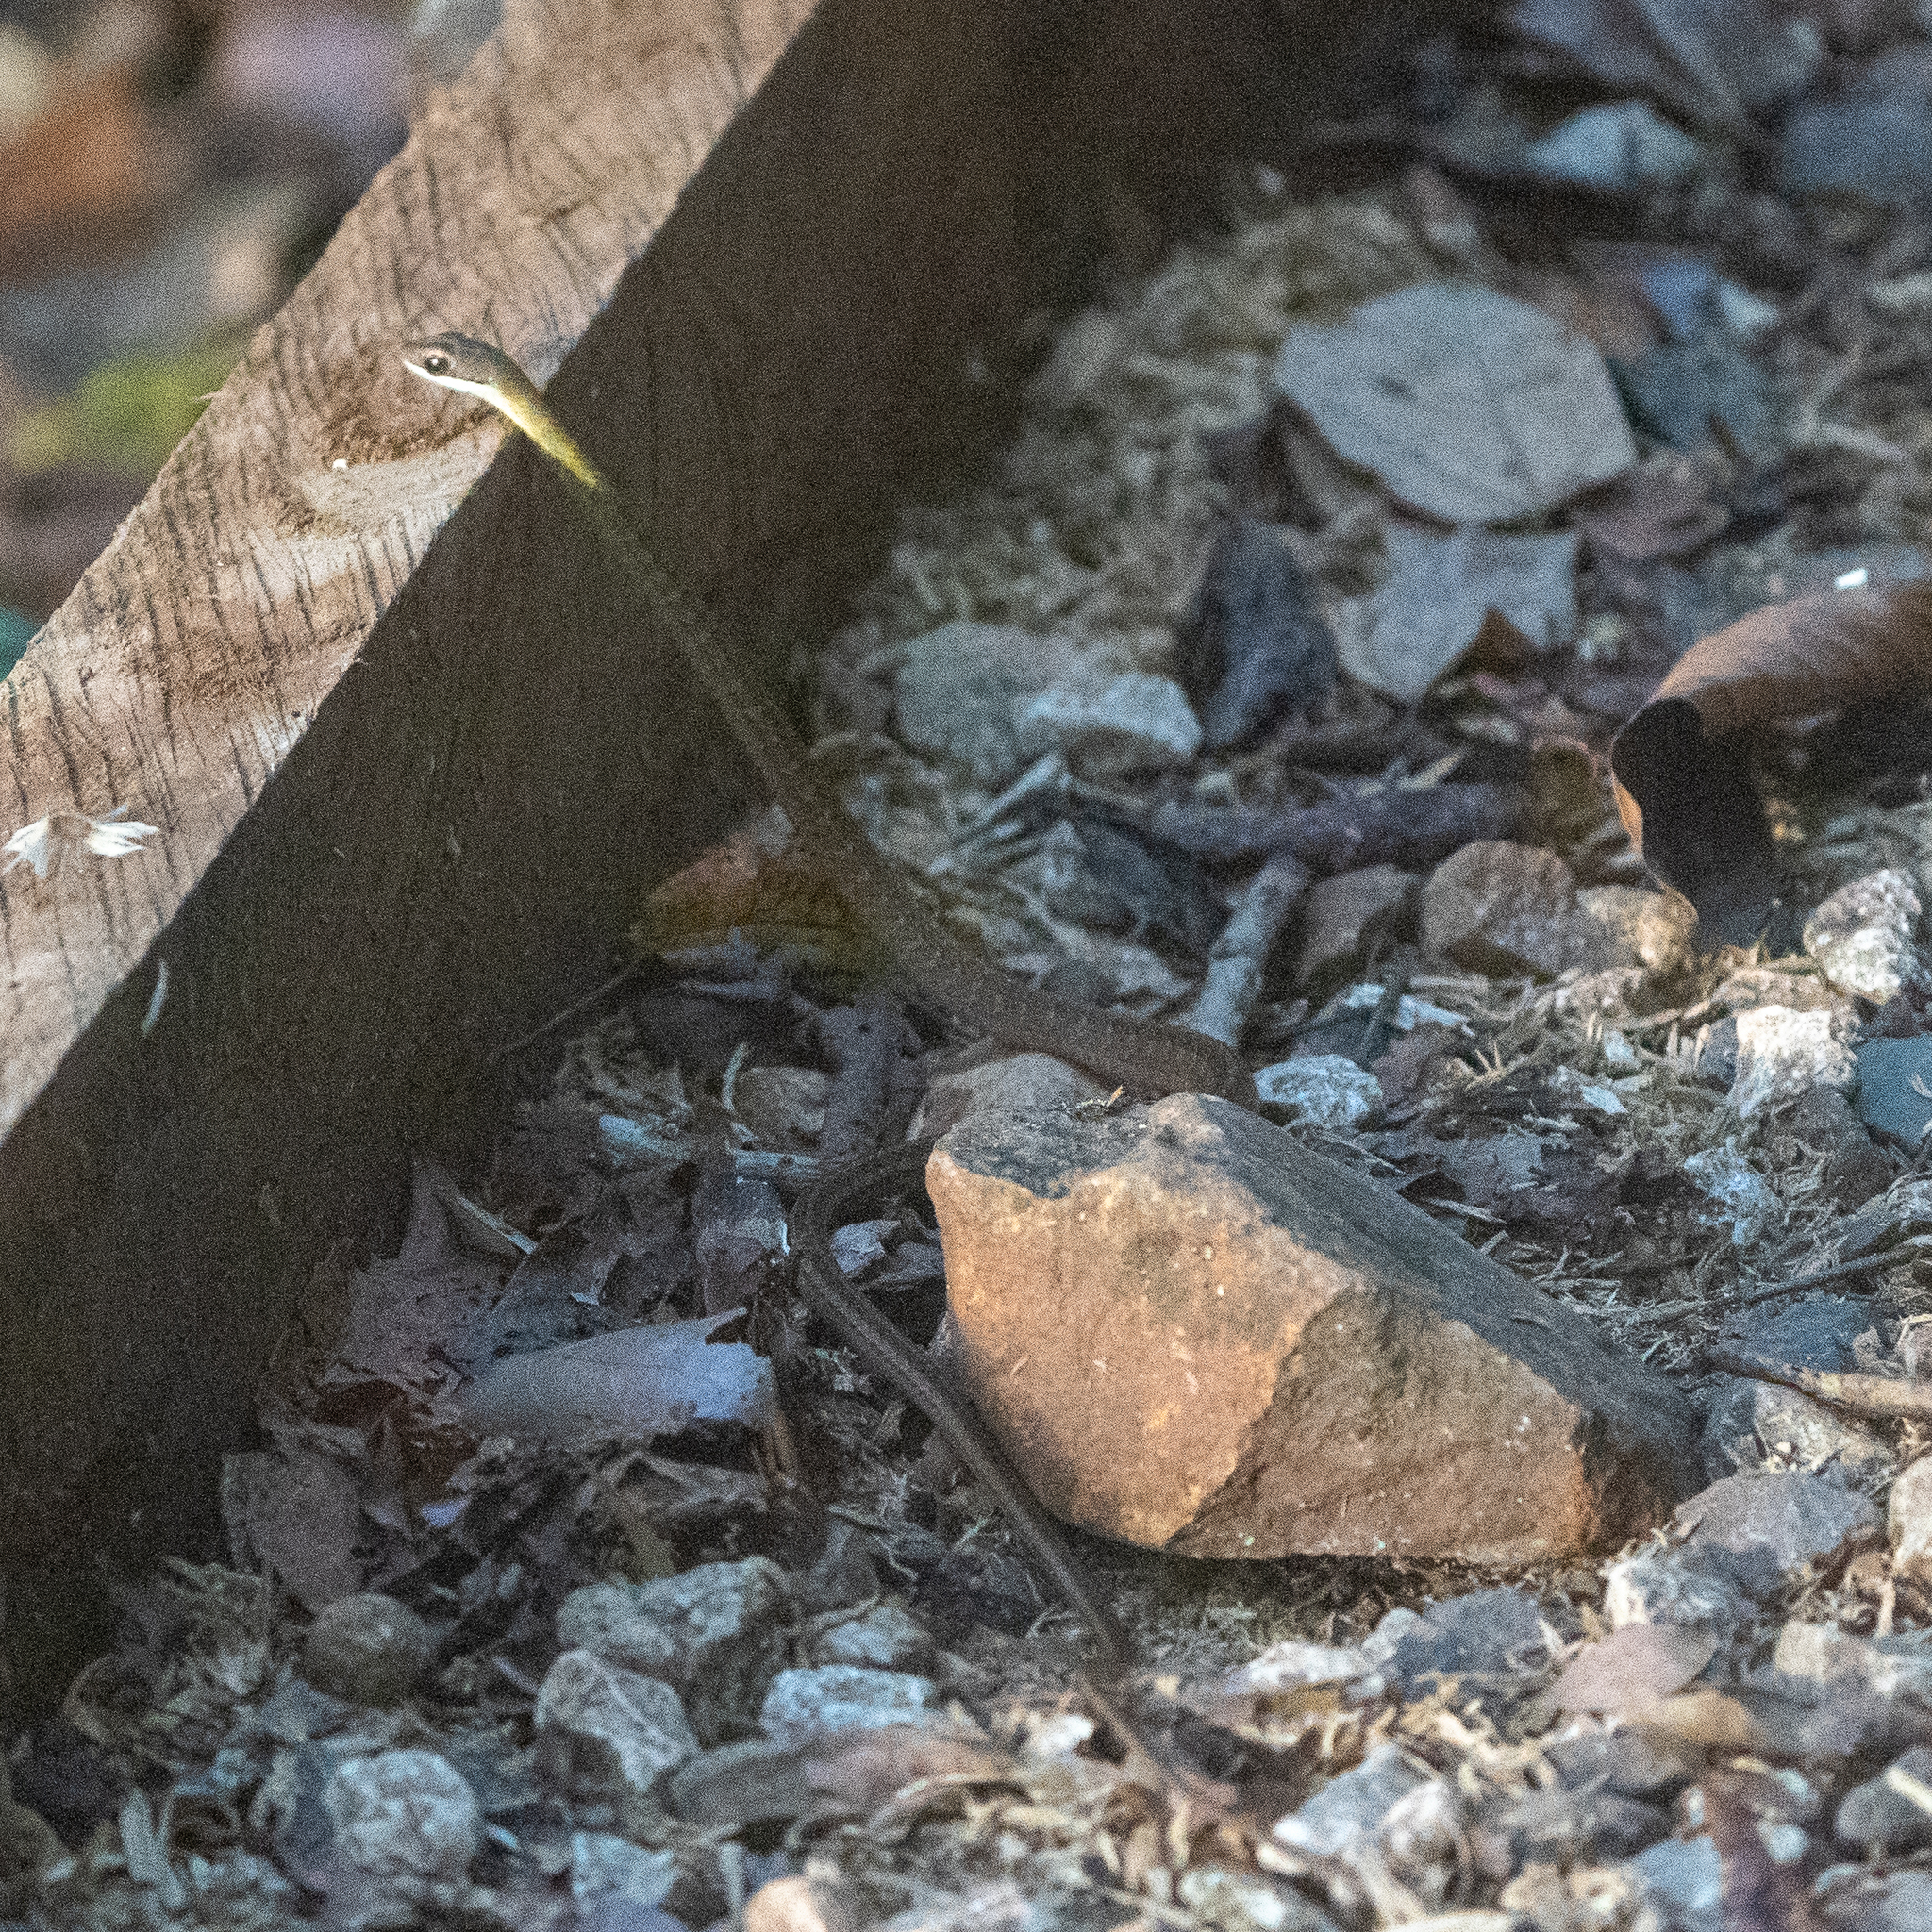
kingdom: Animalia
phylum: Chordata
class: Squamata
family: Colubridae
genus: Dendrophidion
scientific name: Dendrophidion percarinatum
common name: South american forest racer
